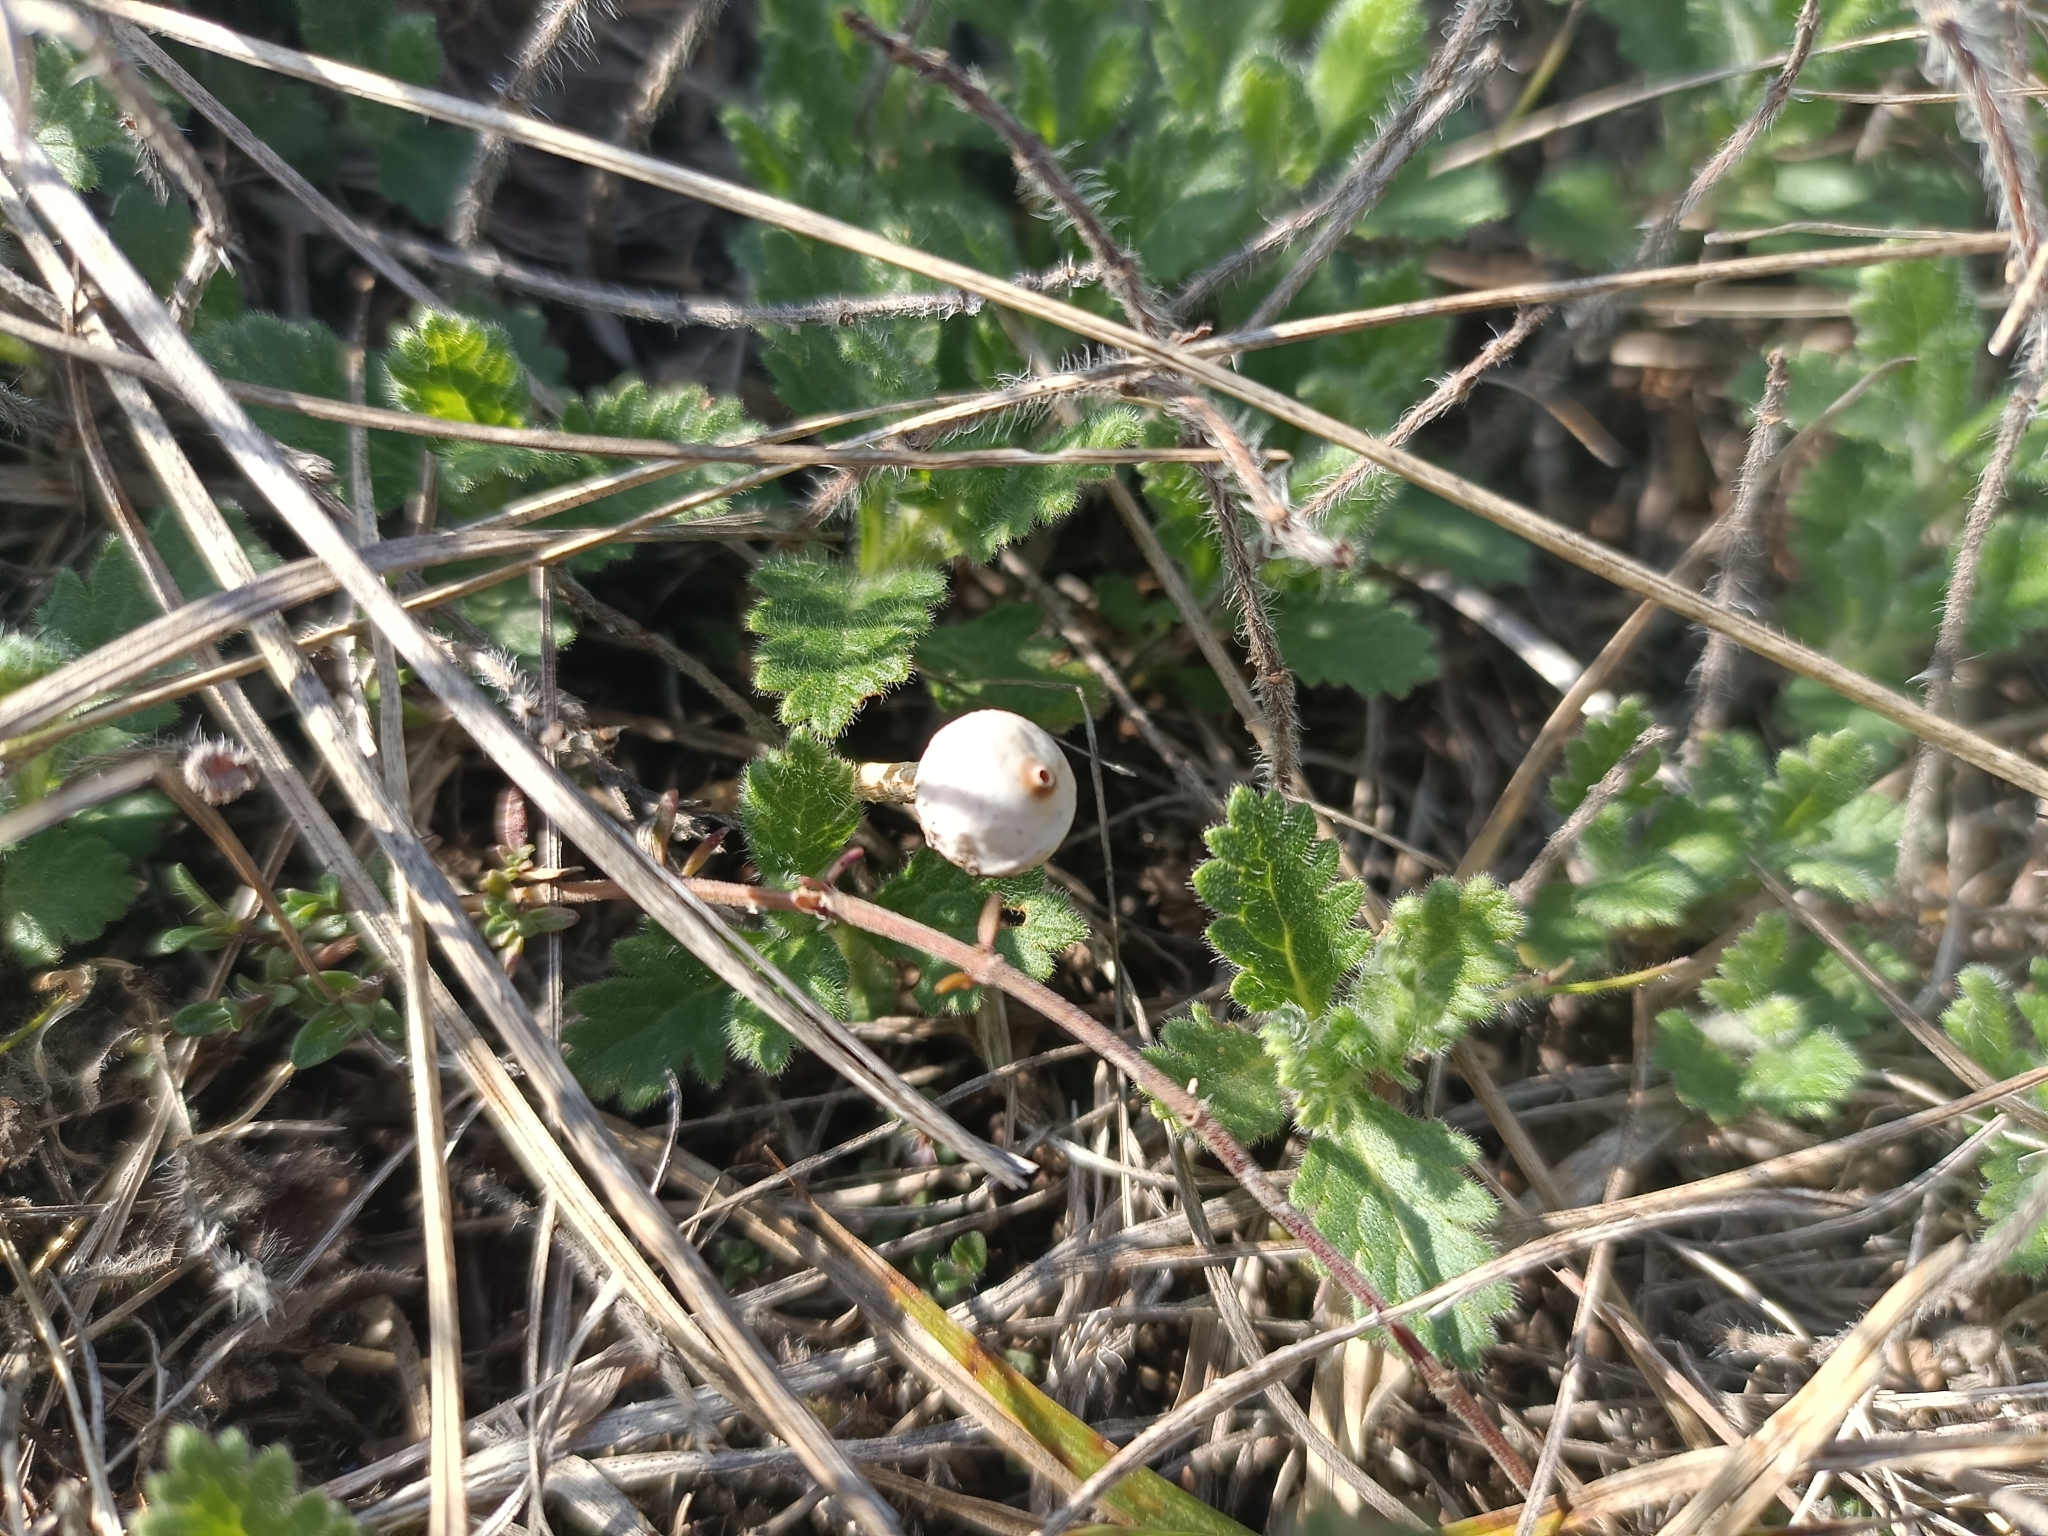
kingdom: Fungi
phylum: Basidiomycota
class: Agaricomycetes
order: Agaricales
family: Agaricaceae
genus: Tulostoma
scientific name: Tulostoma brumale
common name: Winter stalk puffball
